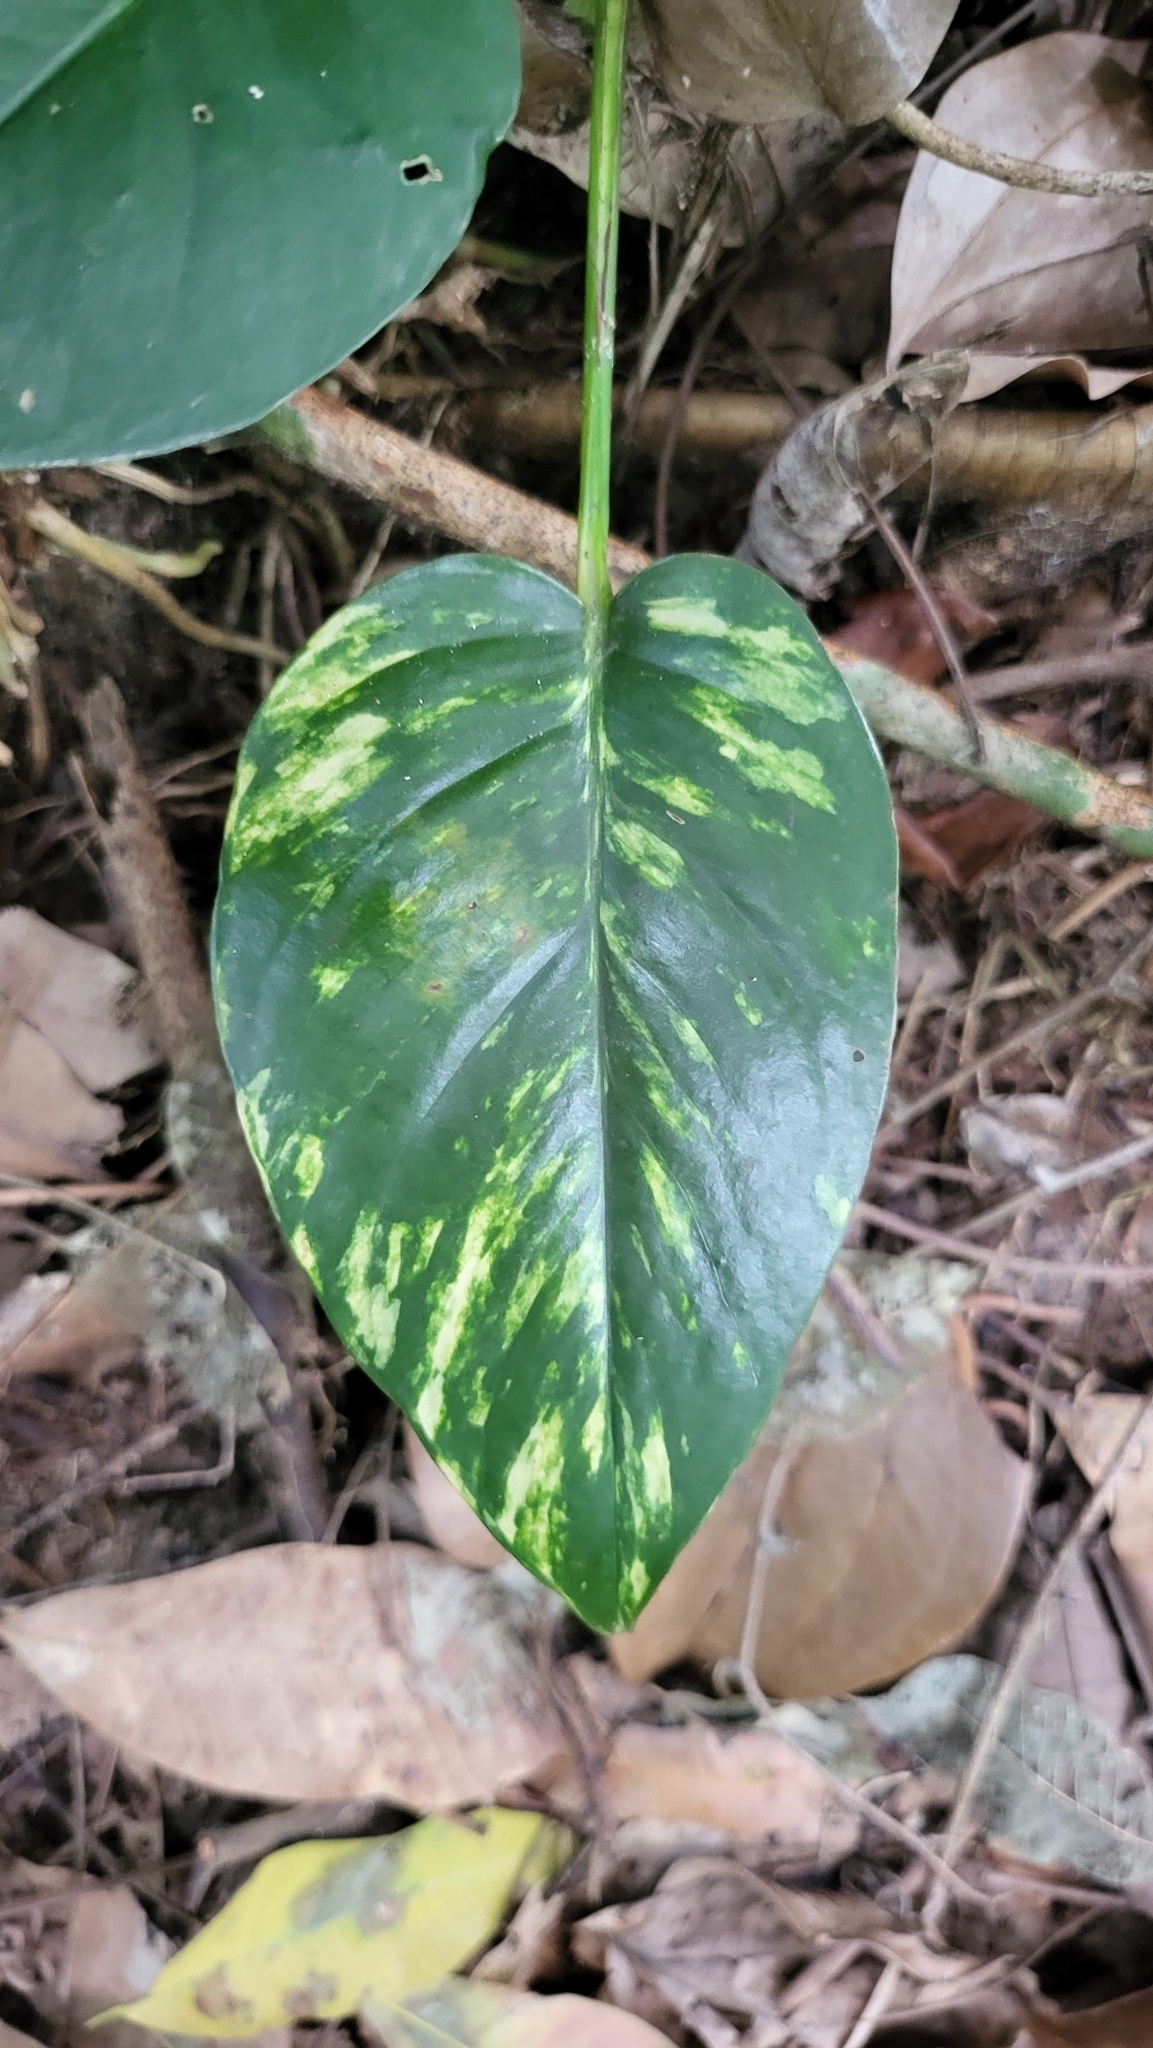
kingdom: Plantae
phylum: Tracheophyta
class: Liliopsida
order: Alismatales
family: Araceae
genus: Epipremnum
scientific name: Epipremnum aureum
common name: Golden hunter's-robe
